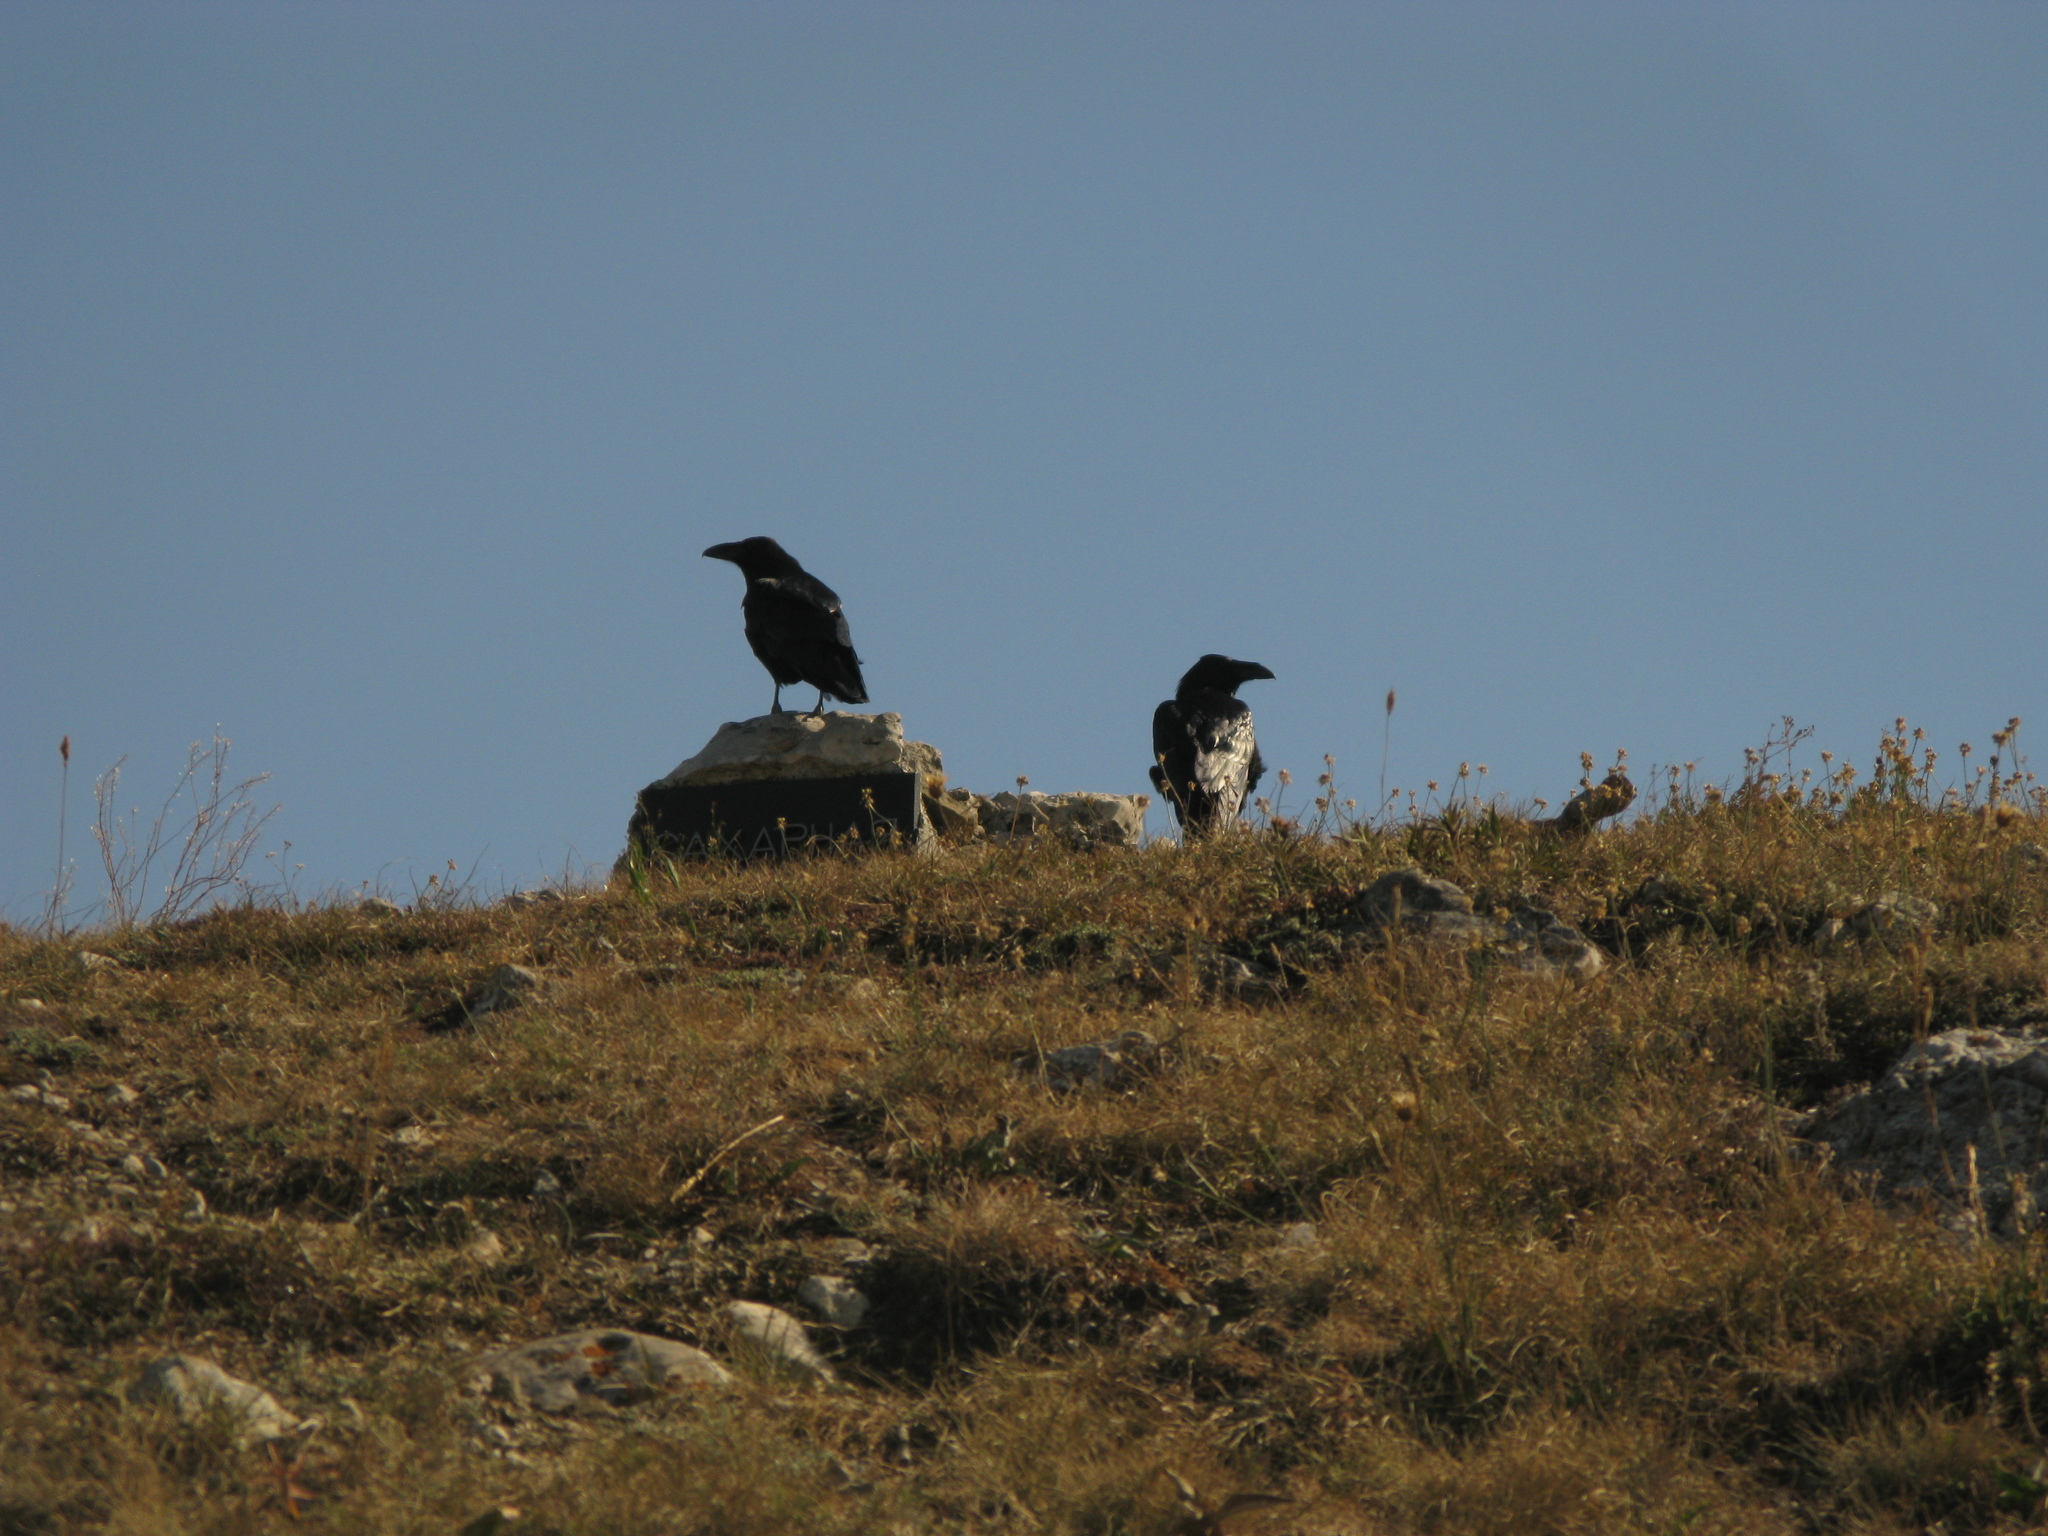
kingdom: Animalia
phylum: Chordata
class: Aves
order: Passeriformes
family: Corvidae
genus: Corvus
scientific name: Corvus corax
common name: Common raven
